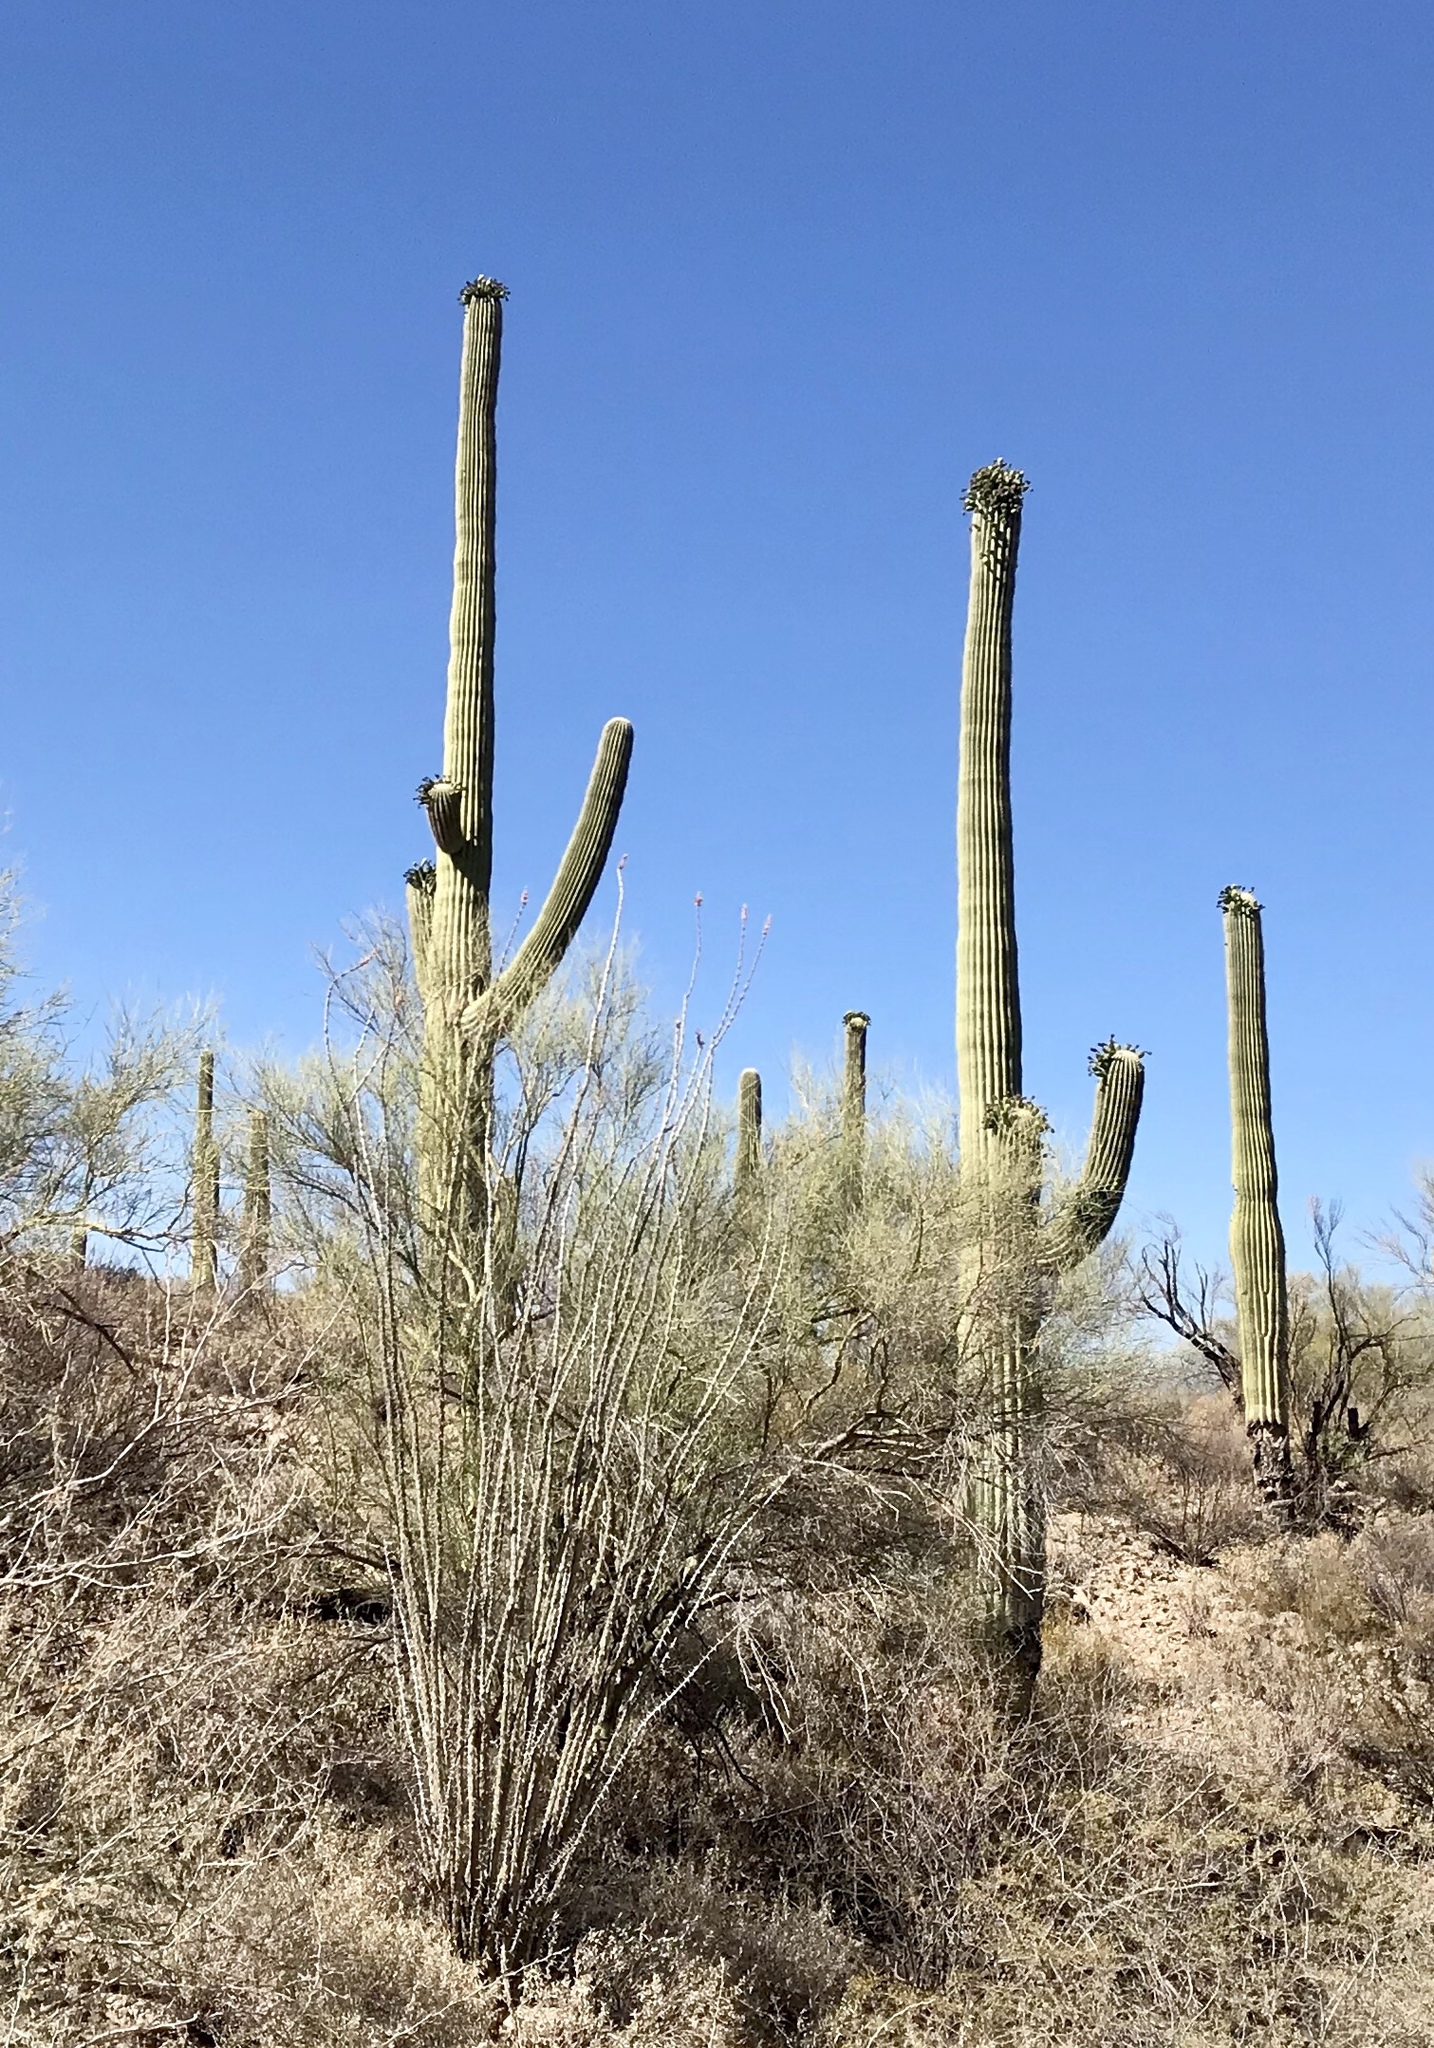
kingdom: Plantae
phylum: Tracheophyta
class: Magnoliopsida
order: Caryophyllales
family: Cactaceae
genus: Carnegiea
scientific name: Carnegiea gigantea
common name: Saguaro
